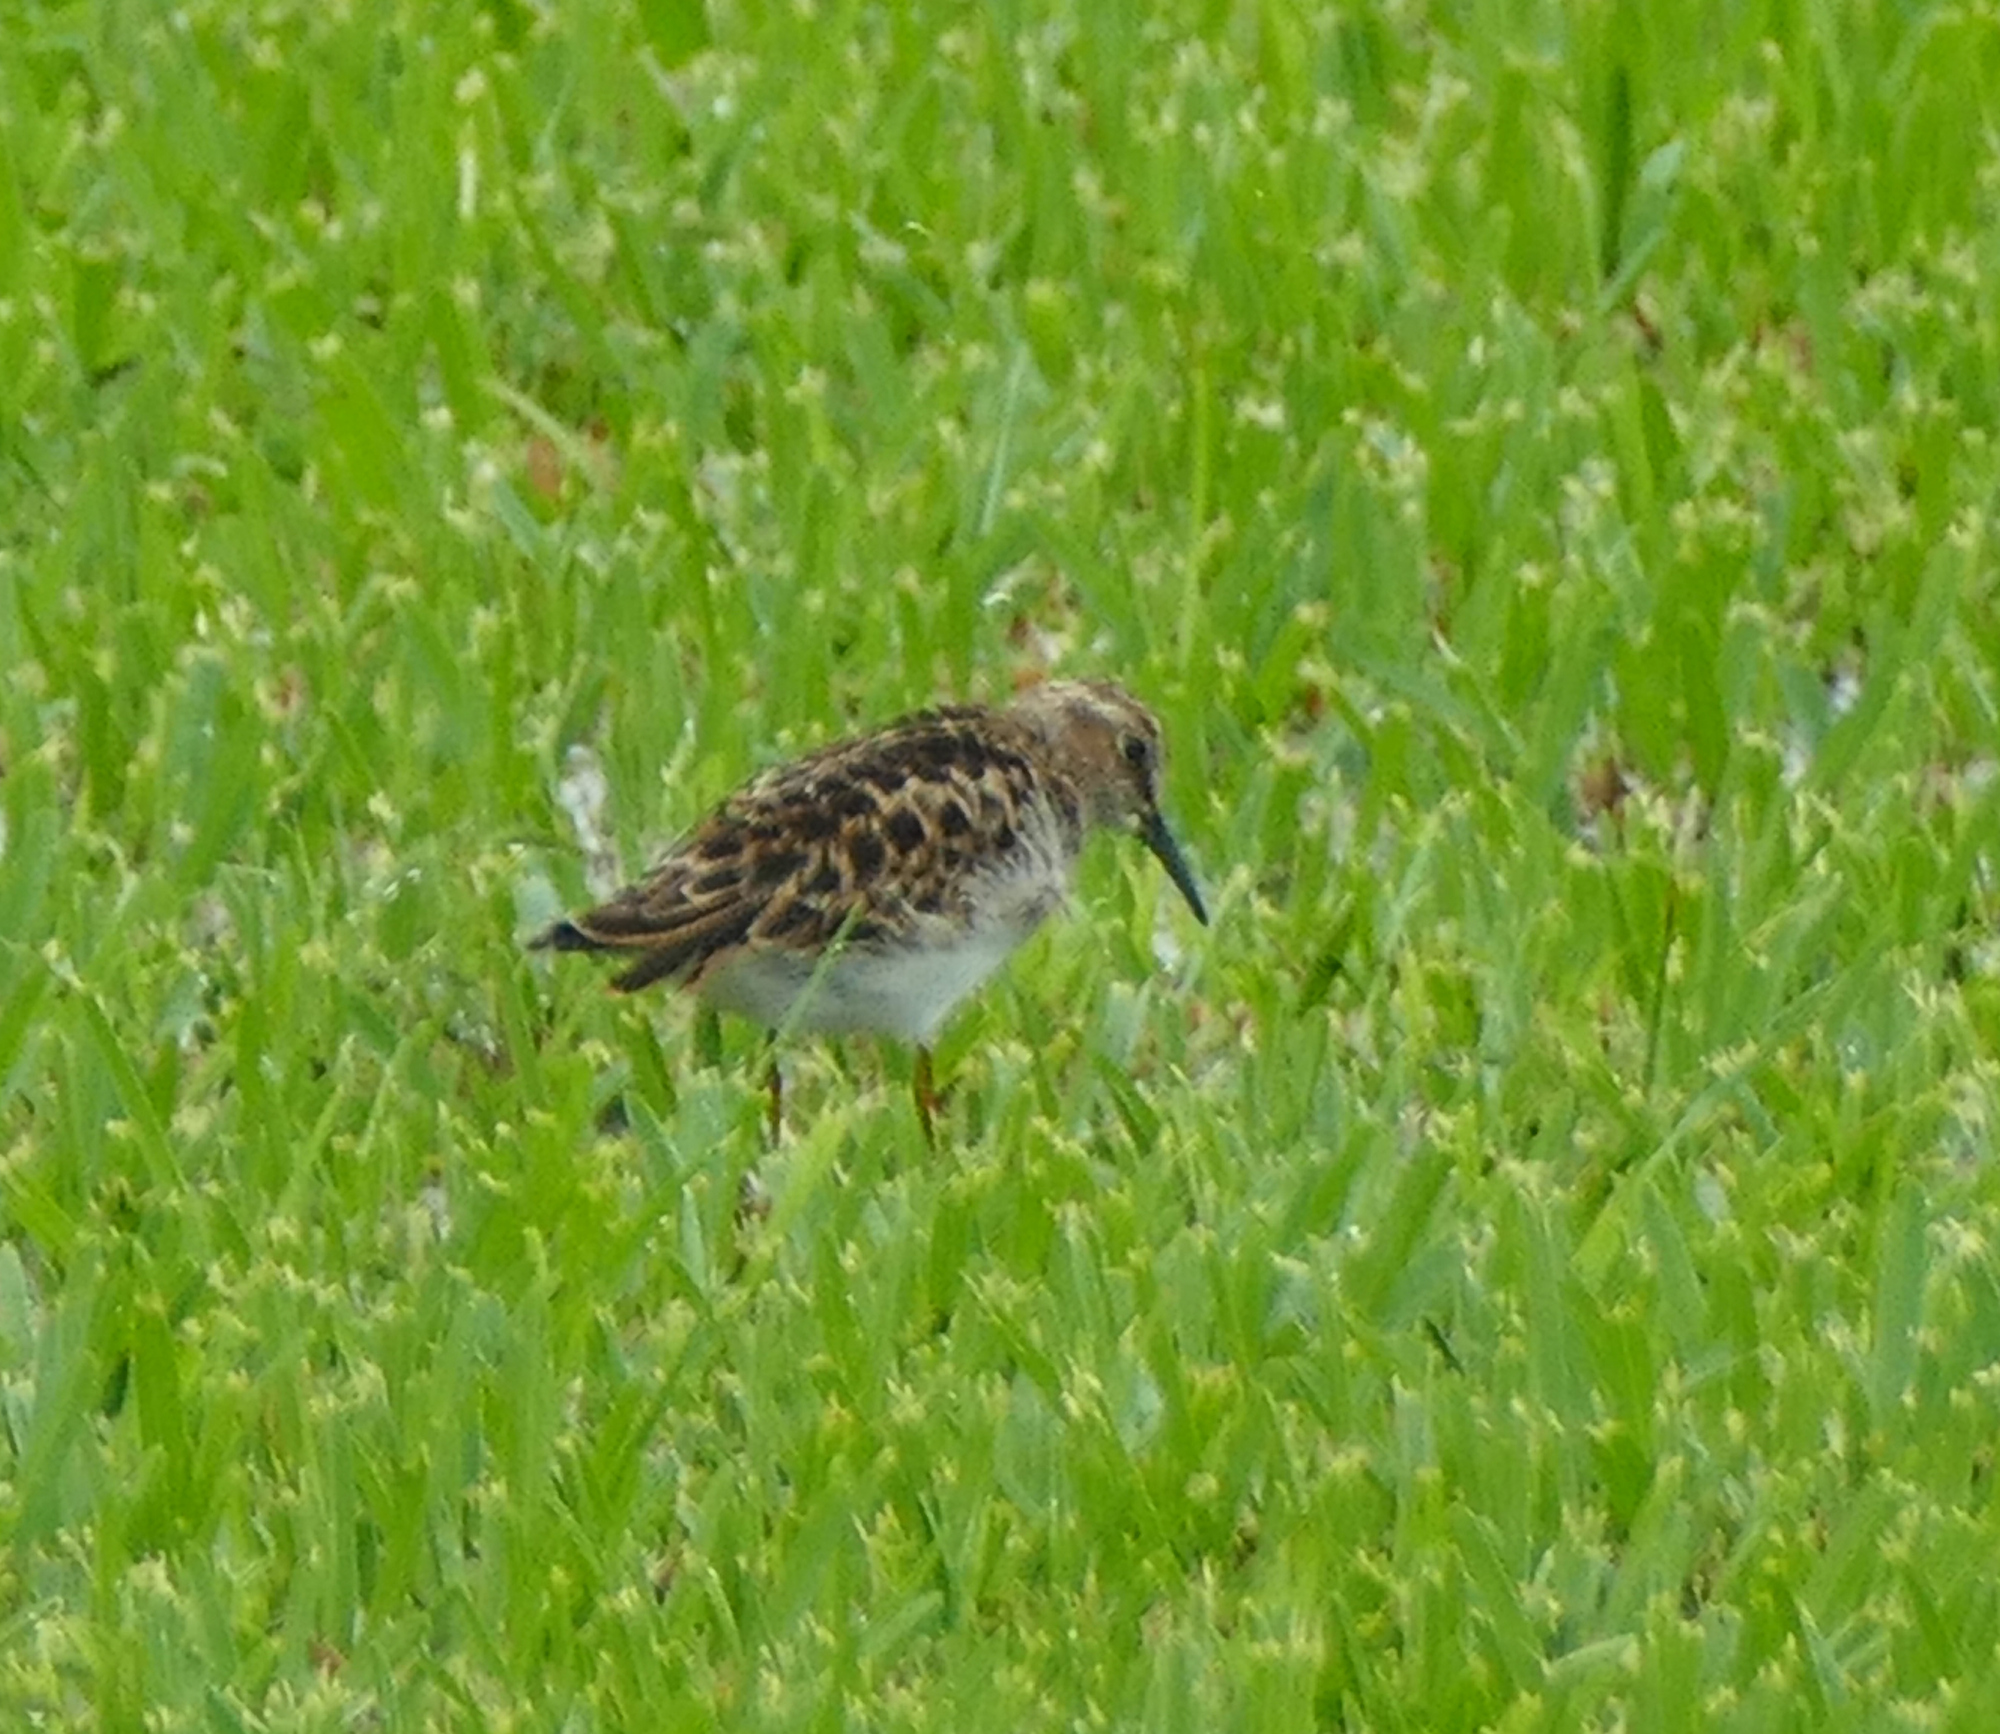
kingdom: Animalia
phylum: Chordata
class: Aves
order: Charadriiformes
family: Scolopacidae
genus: Calidris
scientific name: Calidris minutilla
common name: Least sandpiper
